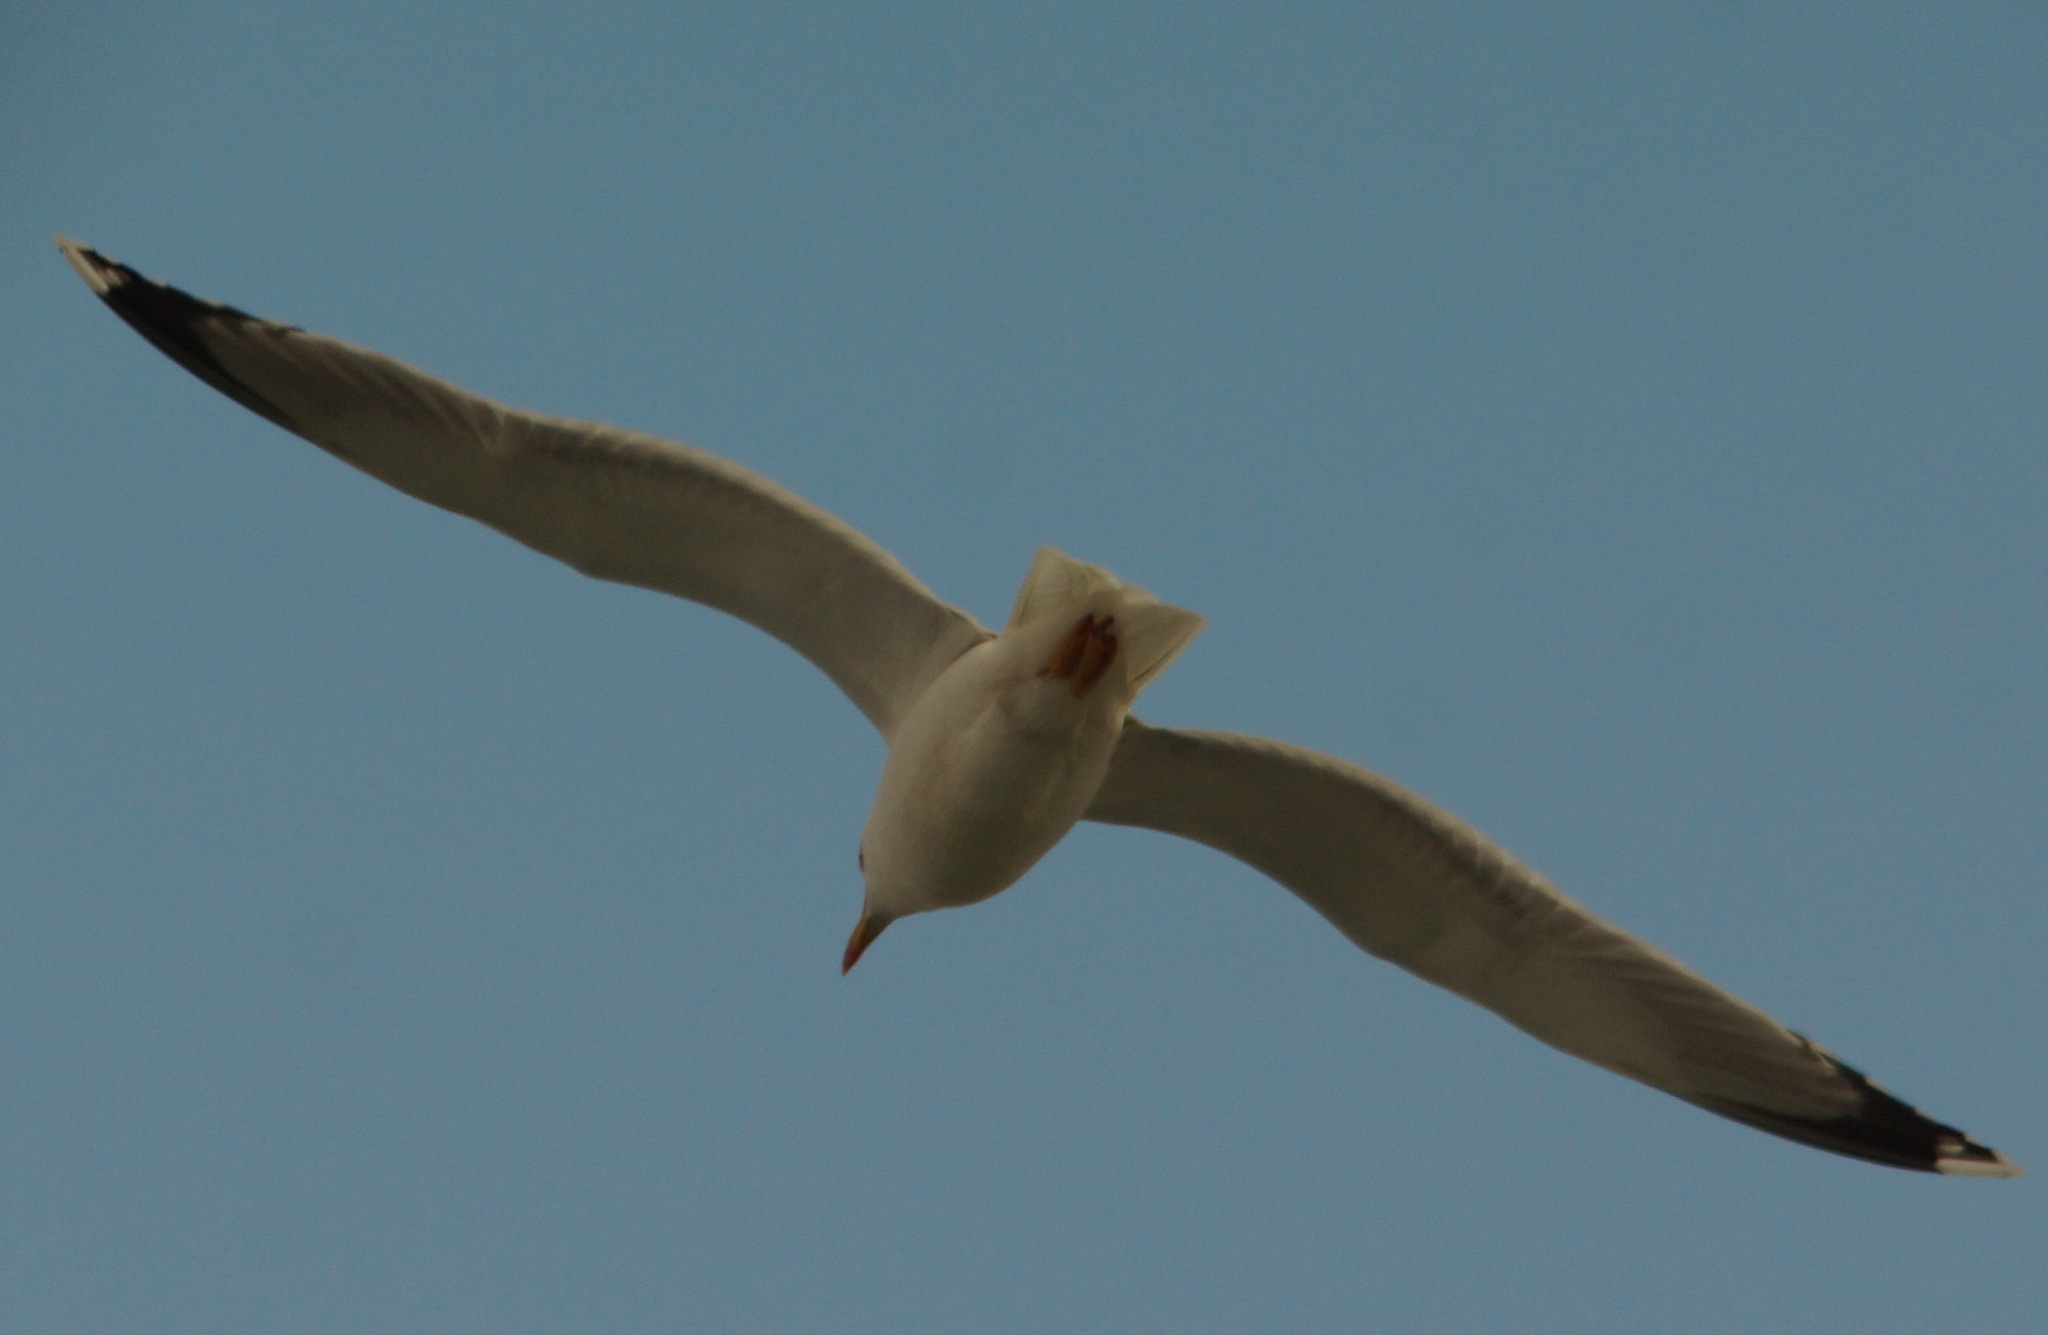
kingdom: Animalia
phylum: Chordata
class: Aves
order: Charadriiformes
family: Laridae
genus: Larus
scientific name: Larus michahellis
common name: Yellow-legged gull
